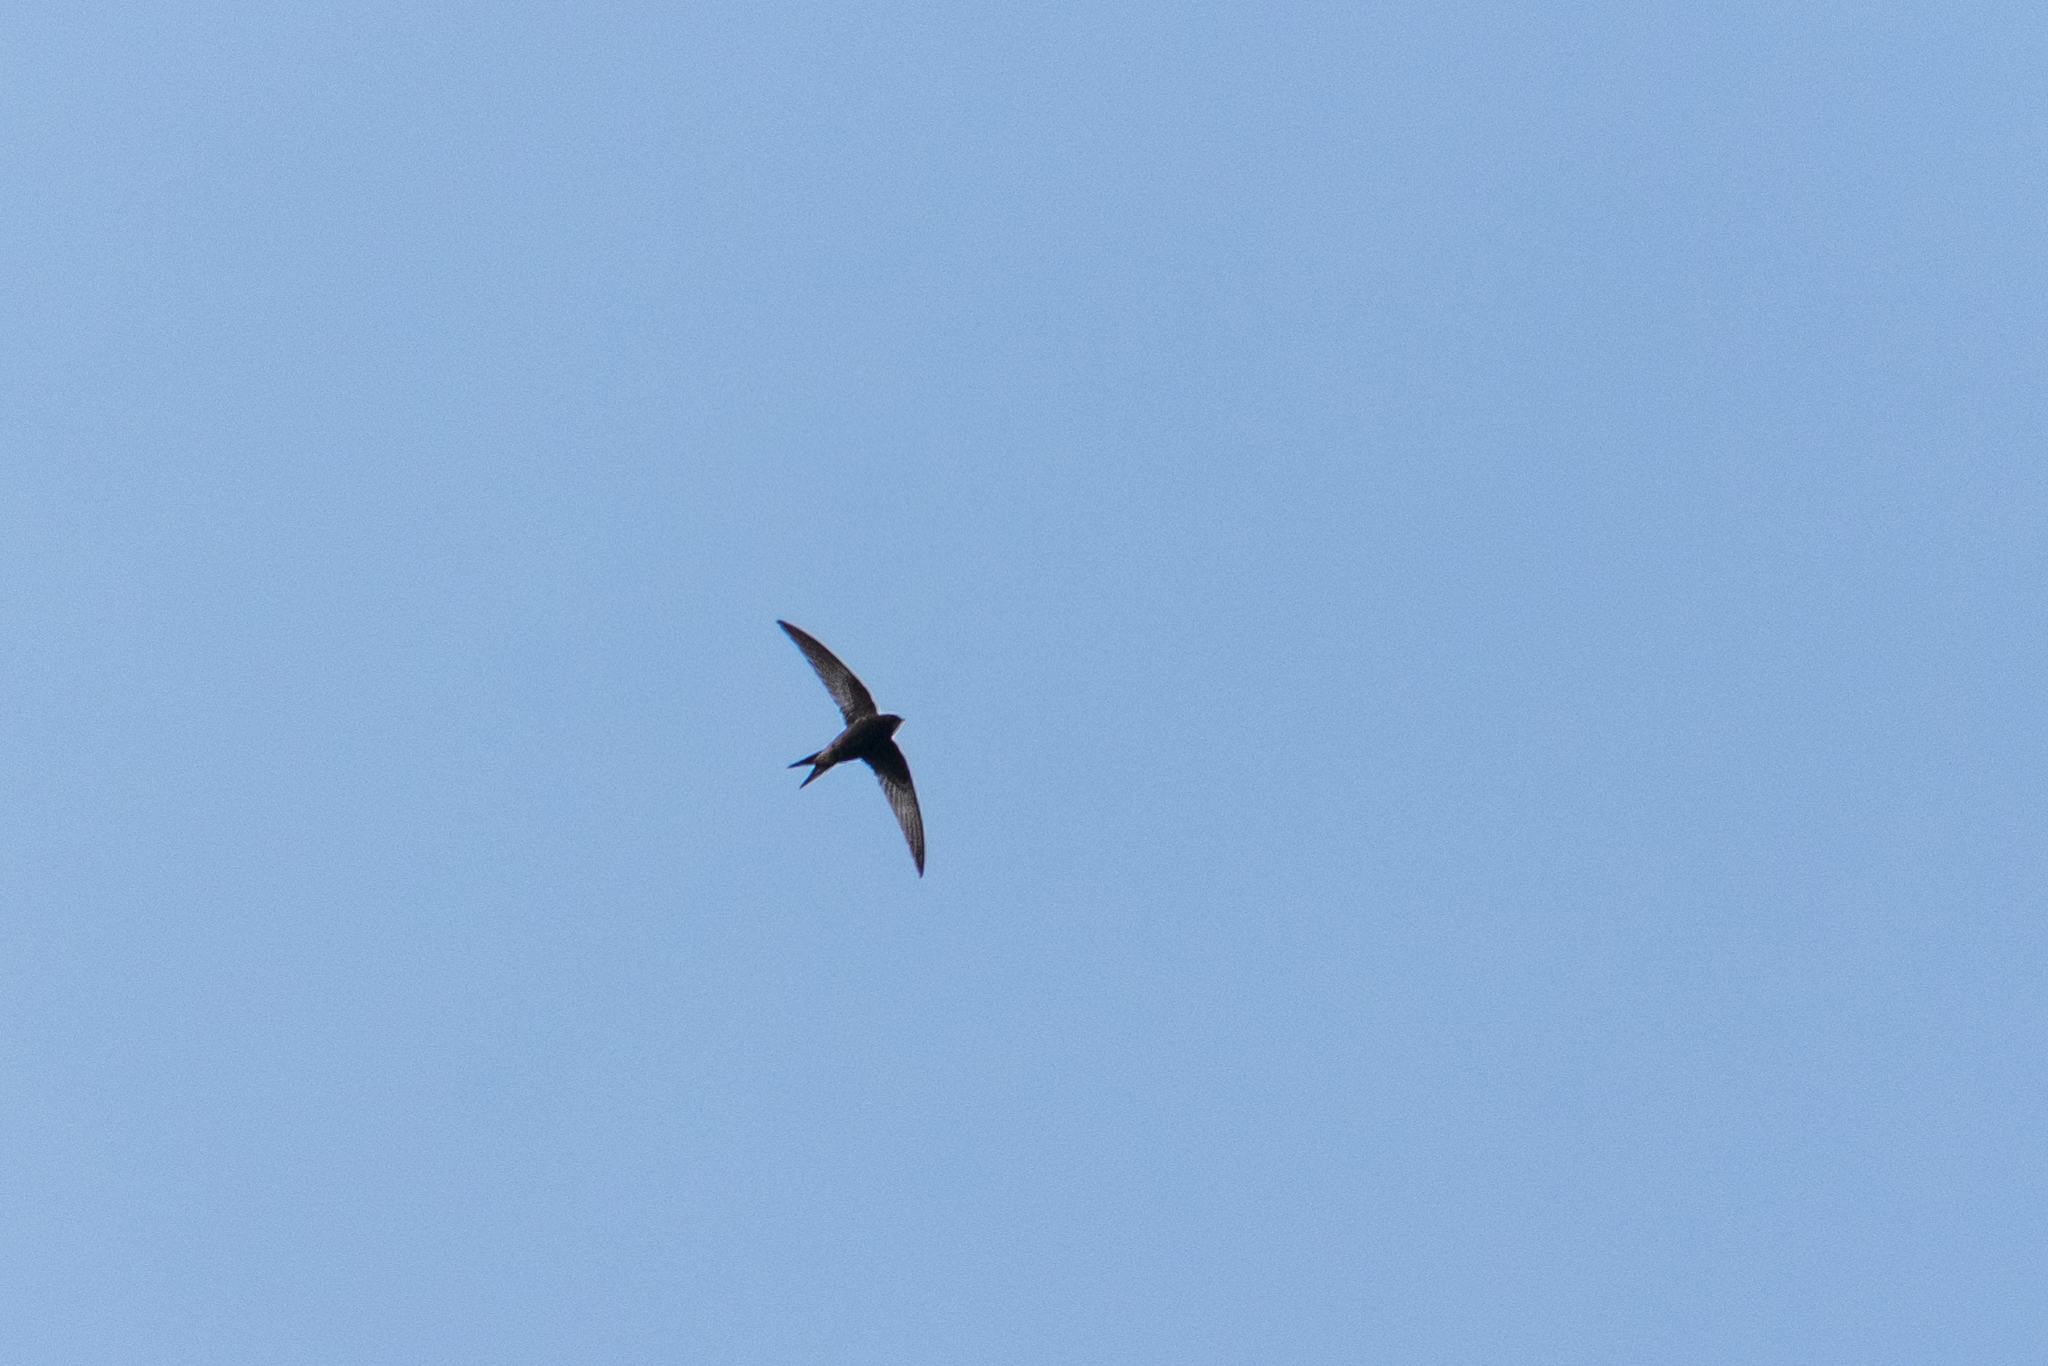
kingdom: Animalia
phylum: Chordata
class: Aves
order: Apodiformes
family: Apodidae
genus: Apus
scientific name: Apus apus
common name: Common swift
